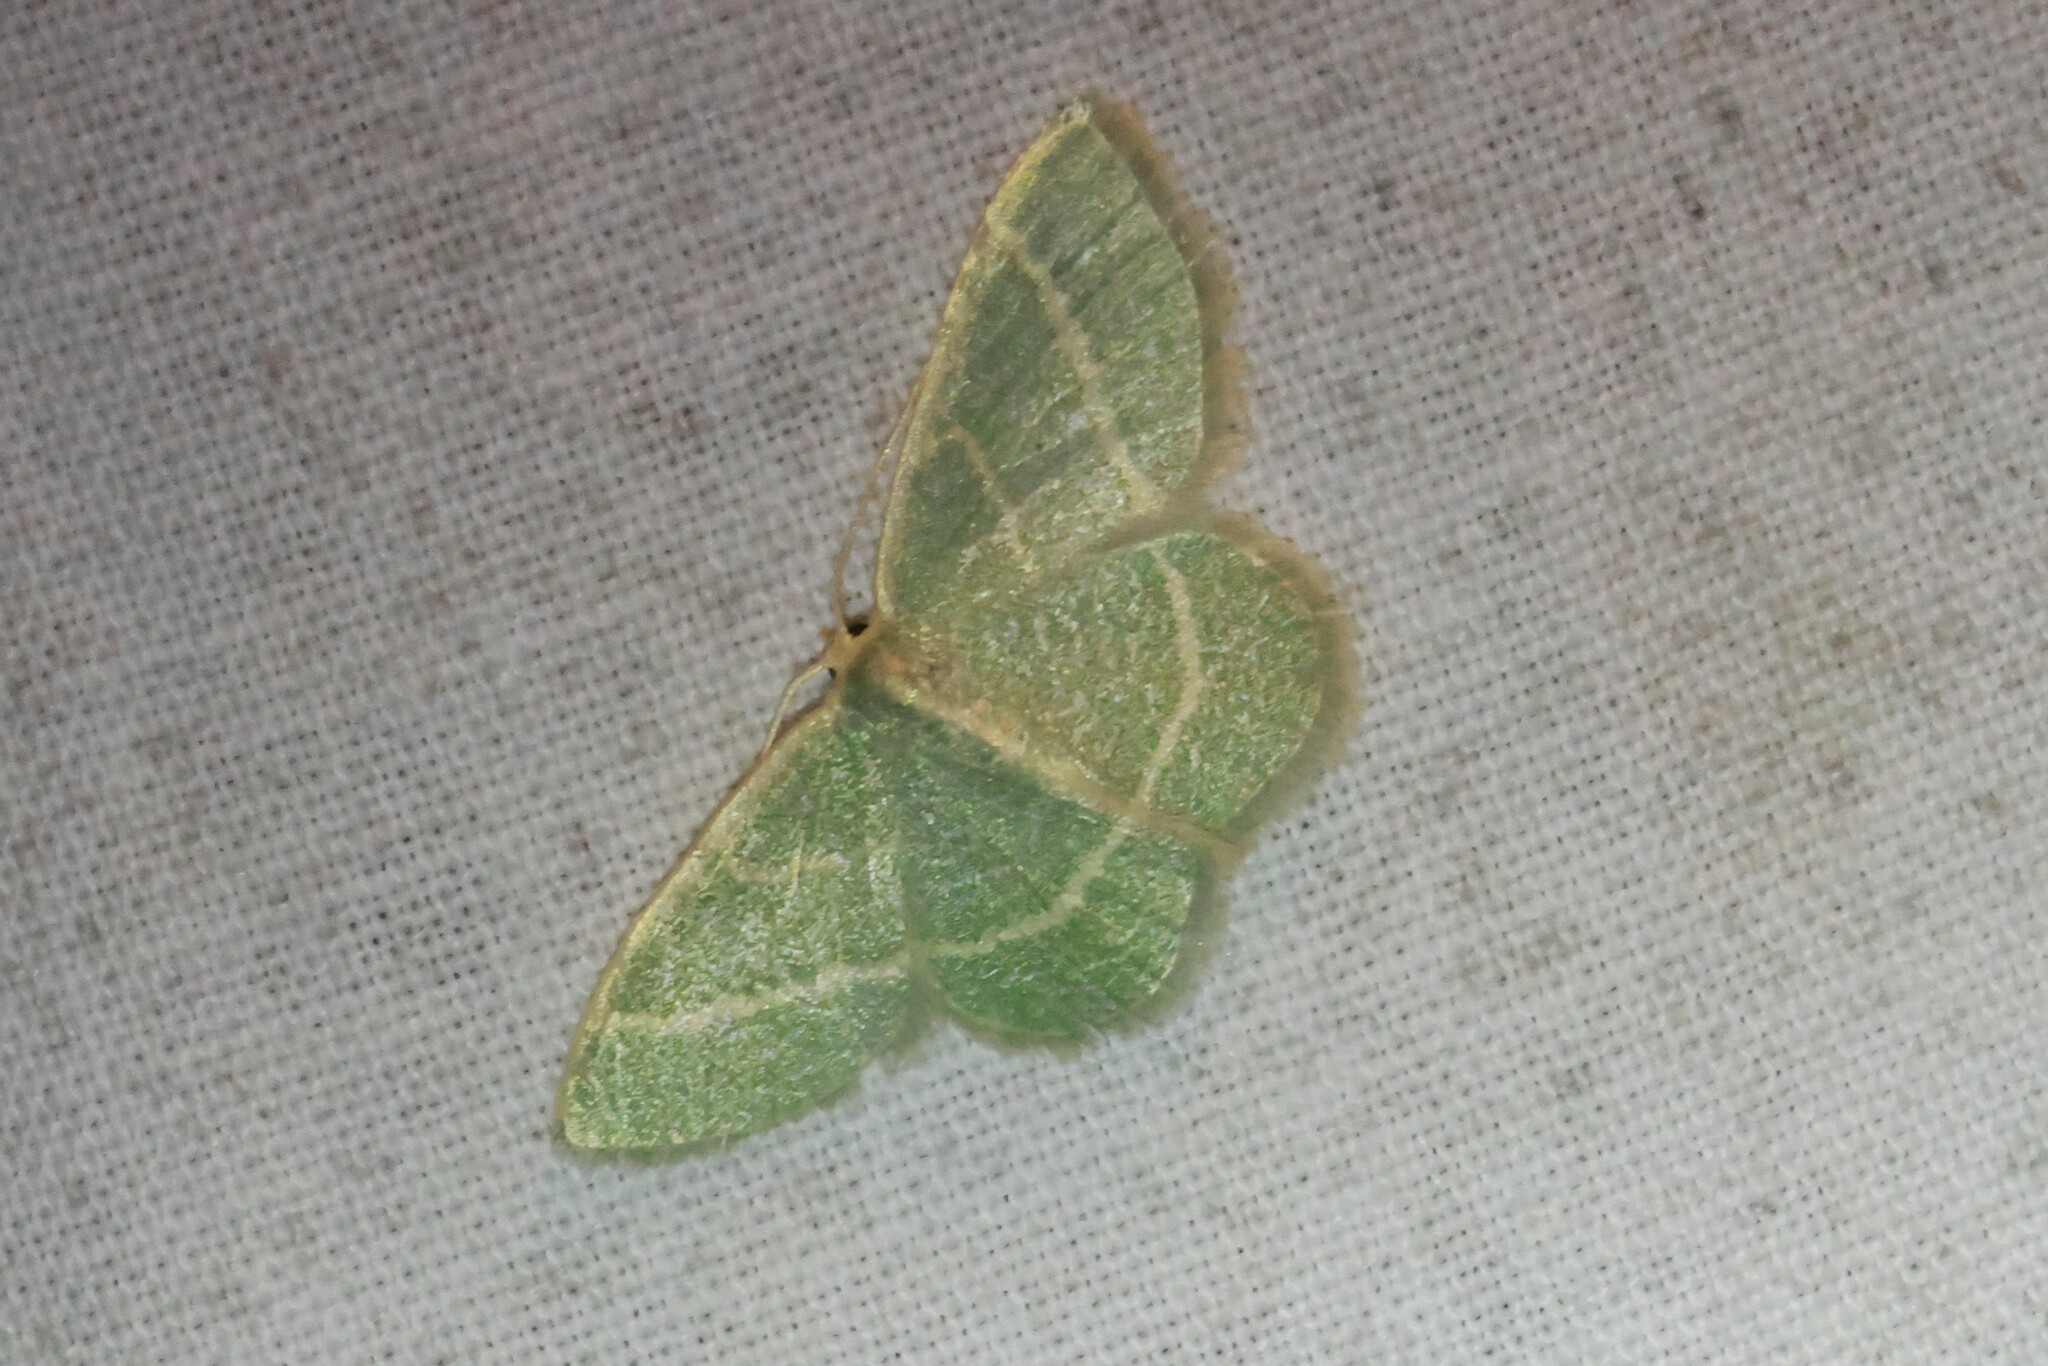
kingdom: Animalia
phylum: Arthropoda
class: Insecta
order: Lepidoptera
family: Geometridae
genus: Chlorochlamys
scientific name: Chlorochlamys chloroleucaria
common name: Blackberry looper
